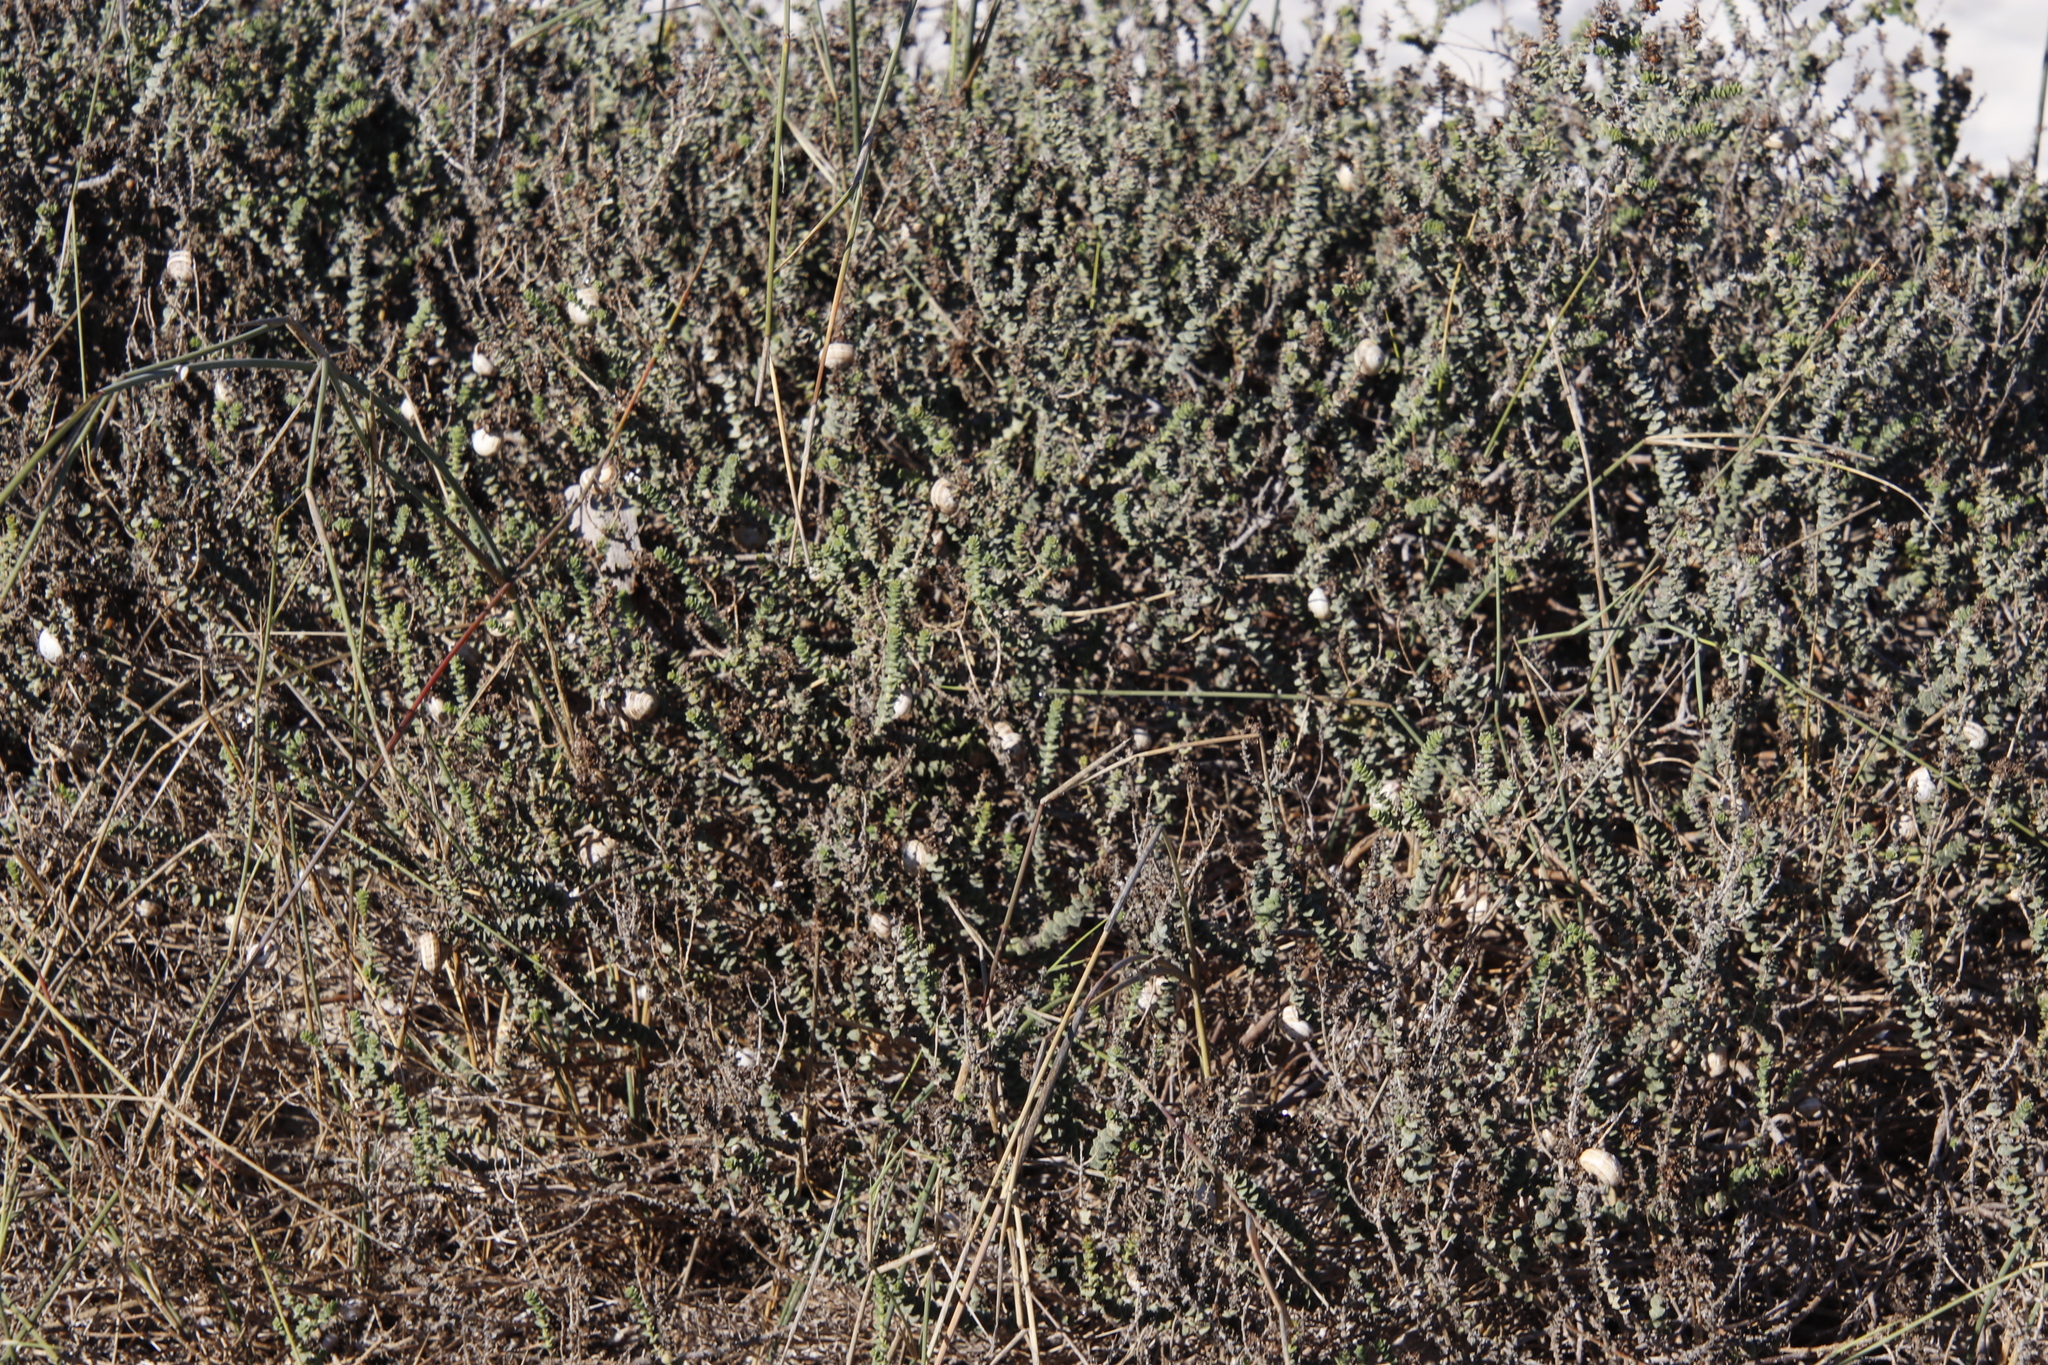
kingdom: Plantae
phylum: Tracheophyta
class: Magnoliopsida
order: Lamiales
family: Scrophulariaceae
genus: Hebenstretia
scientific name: Hebenstretia cordata
